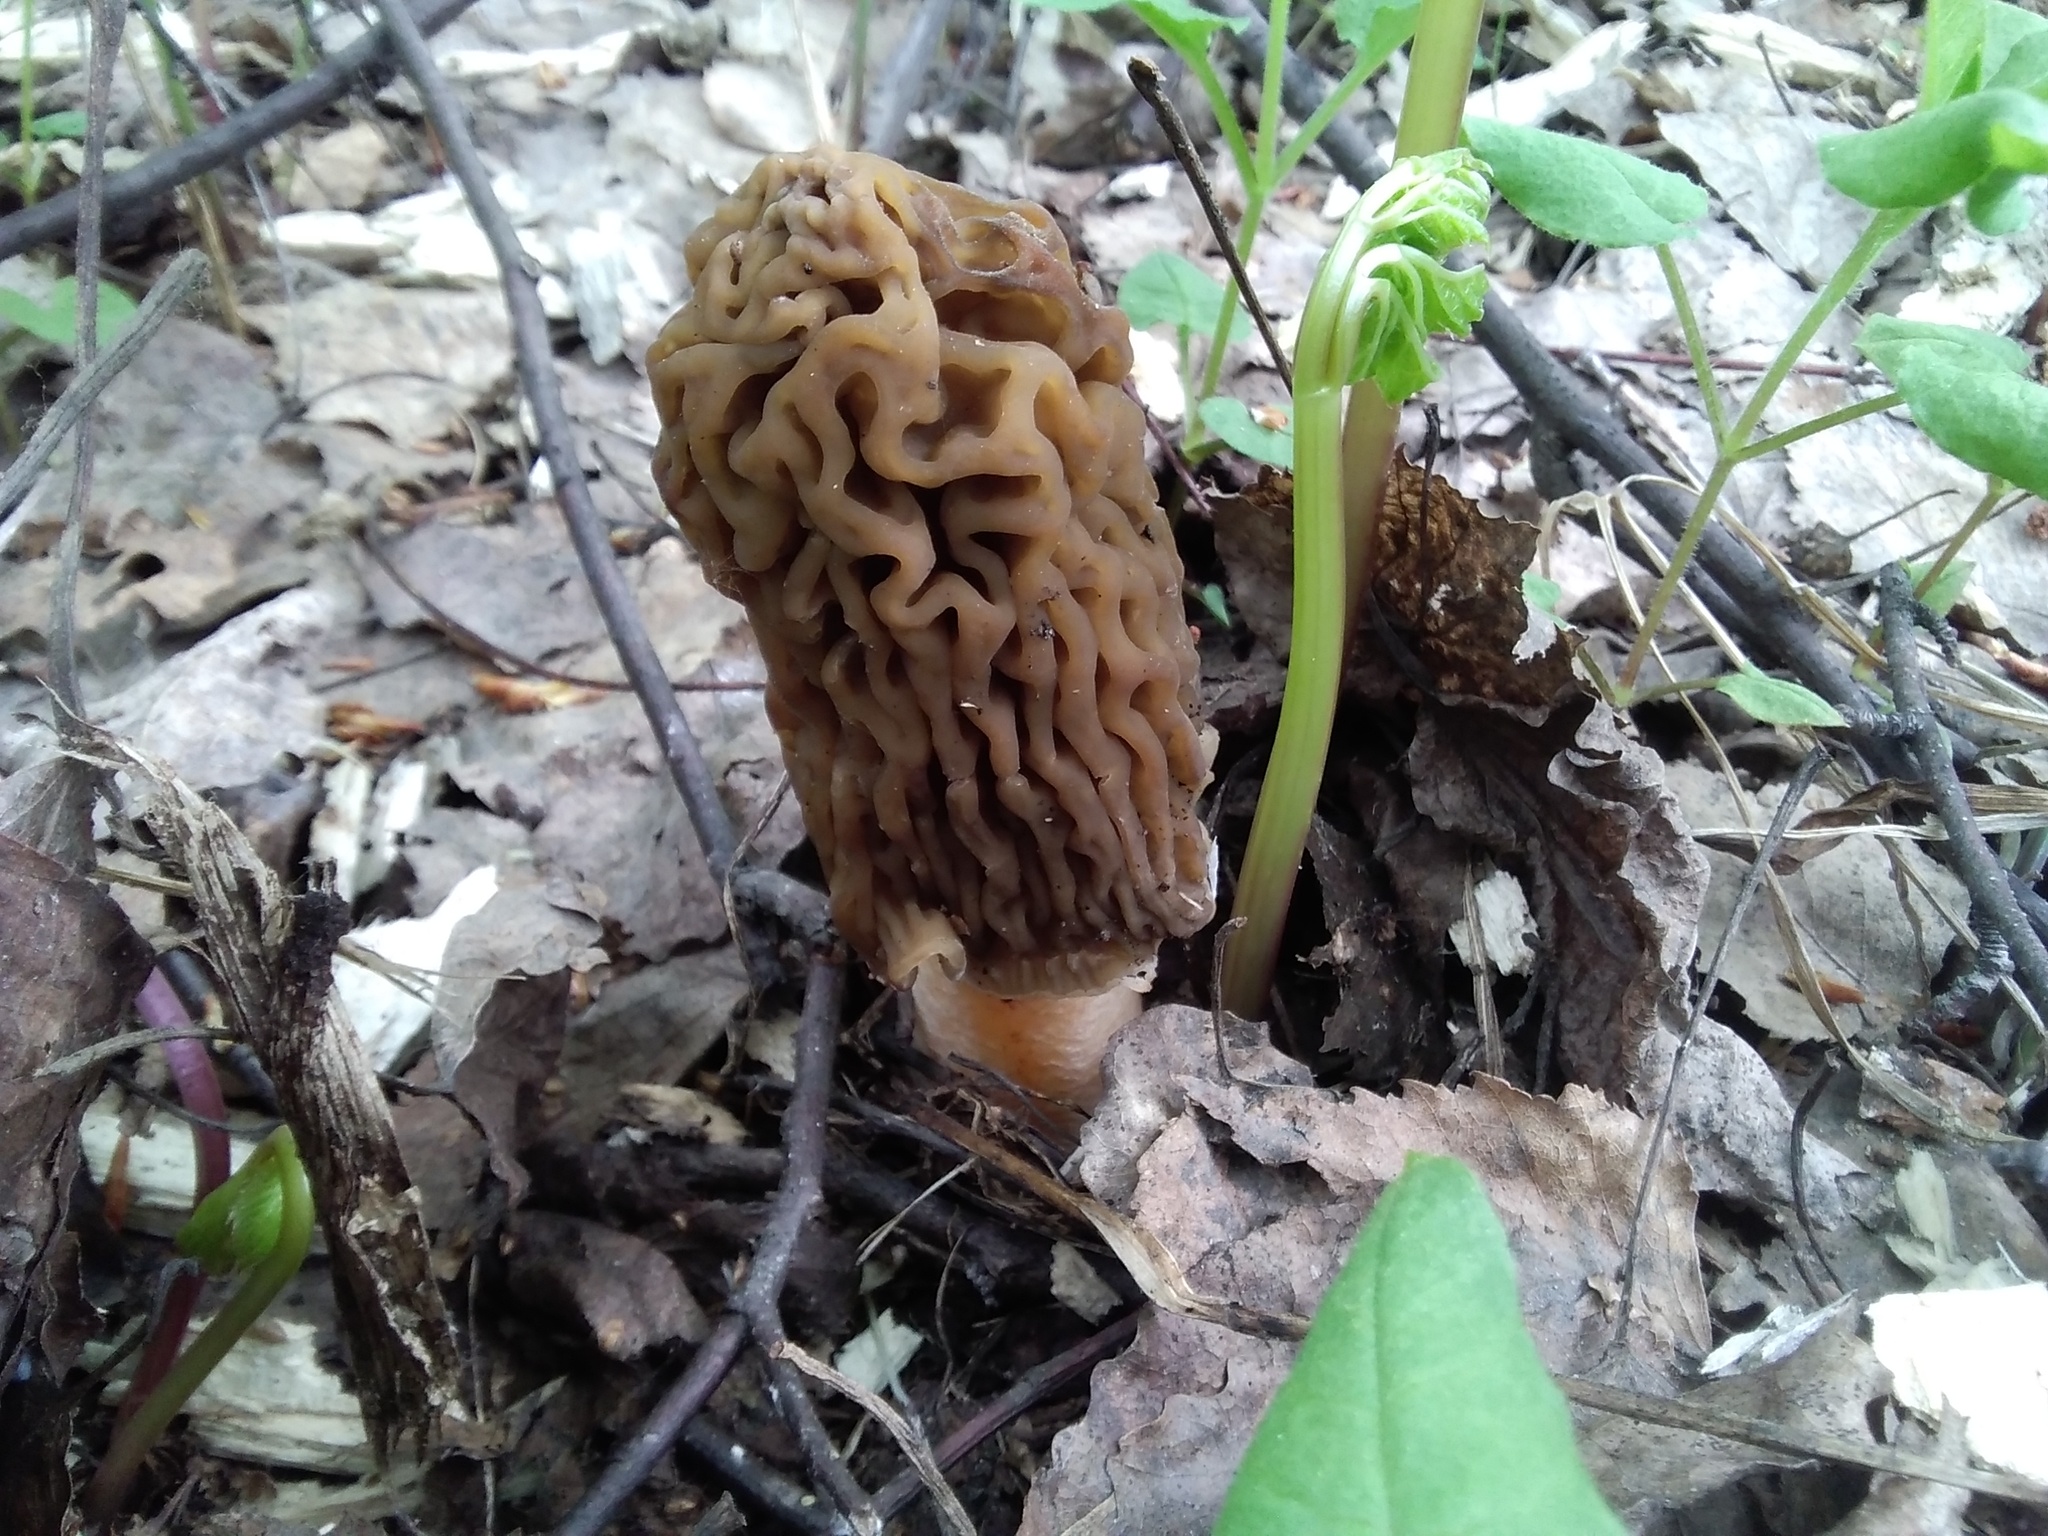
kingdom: Fungi
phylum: Ascomycota
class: Pezizomycetes
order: Pezizales
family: Morchellaceae
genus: Verpa
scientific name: Verpa bohemica
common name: Wrinkled thimble morel
